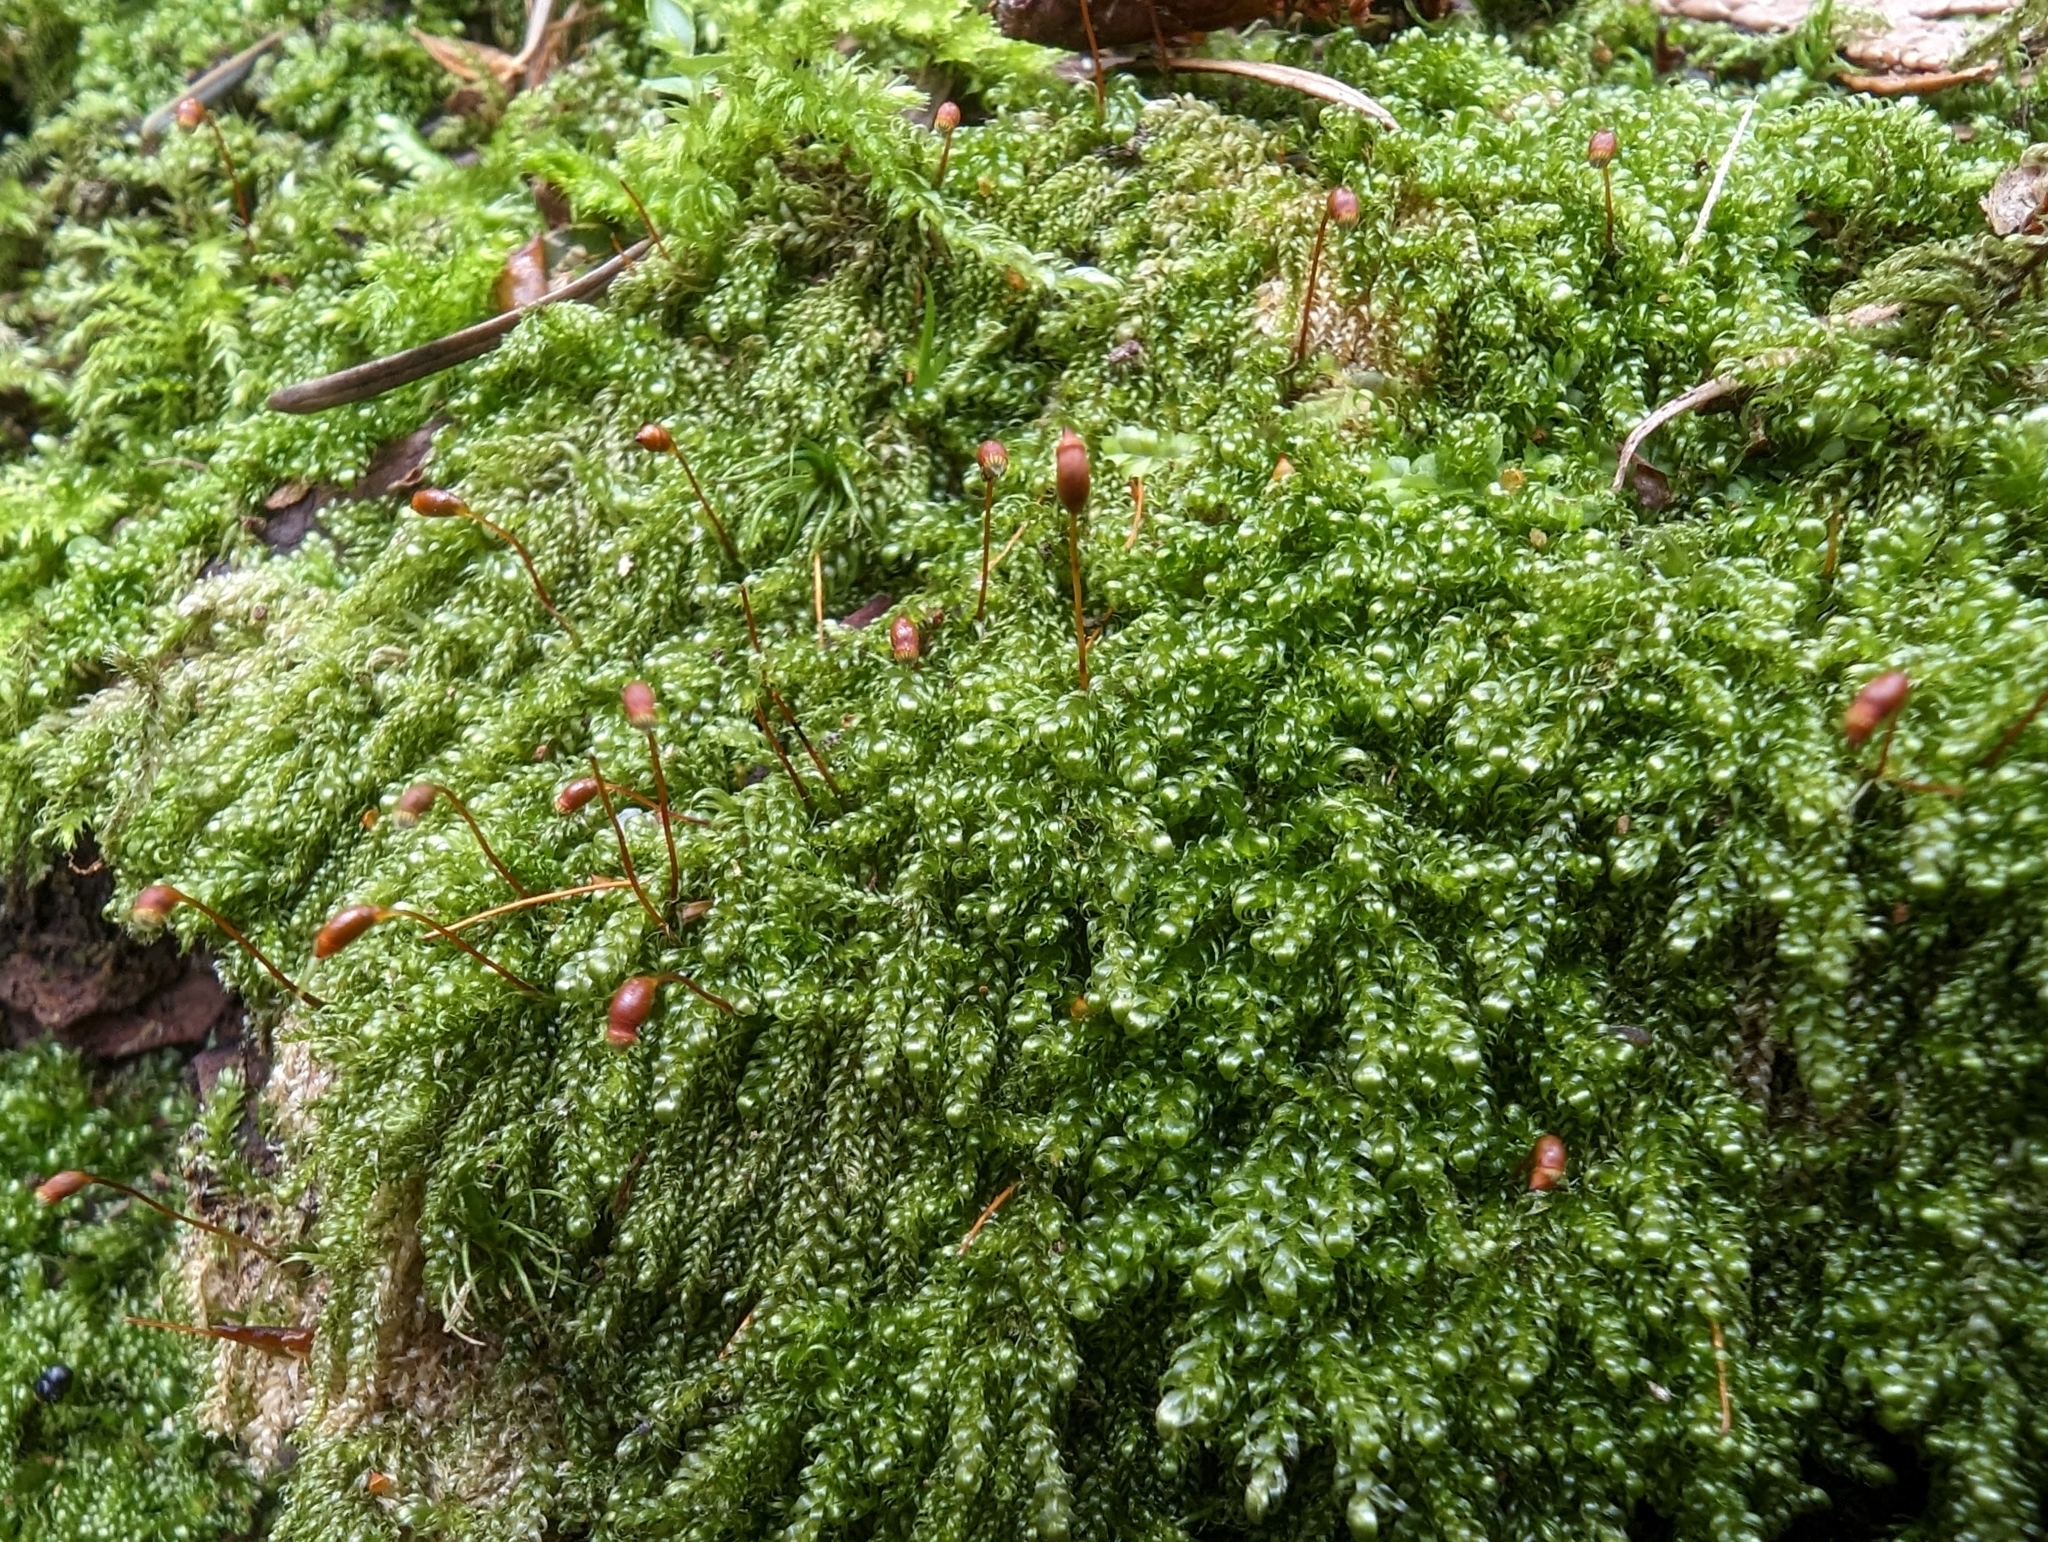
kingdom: Plantae
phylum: Bryophyta
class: Bryopsida
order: Hypnales
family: Pylaisiadelphaceae
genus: Trochophyllohypnum
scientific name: Trochophyllohypnum circinale
